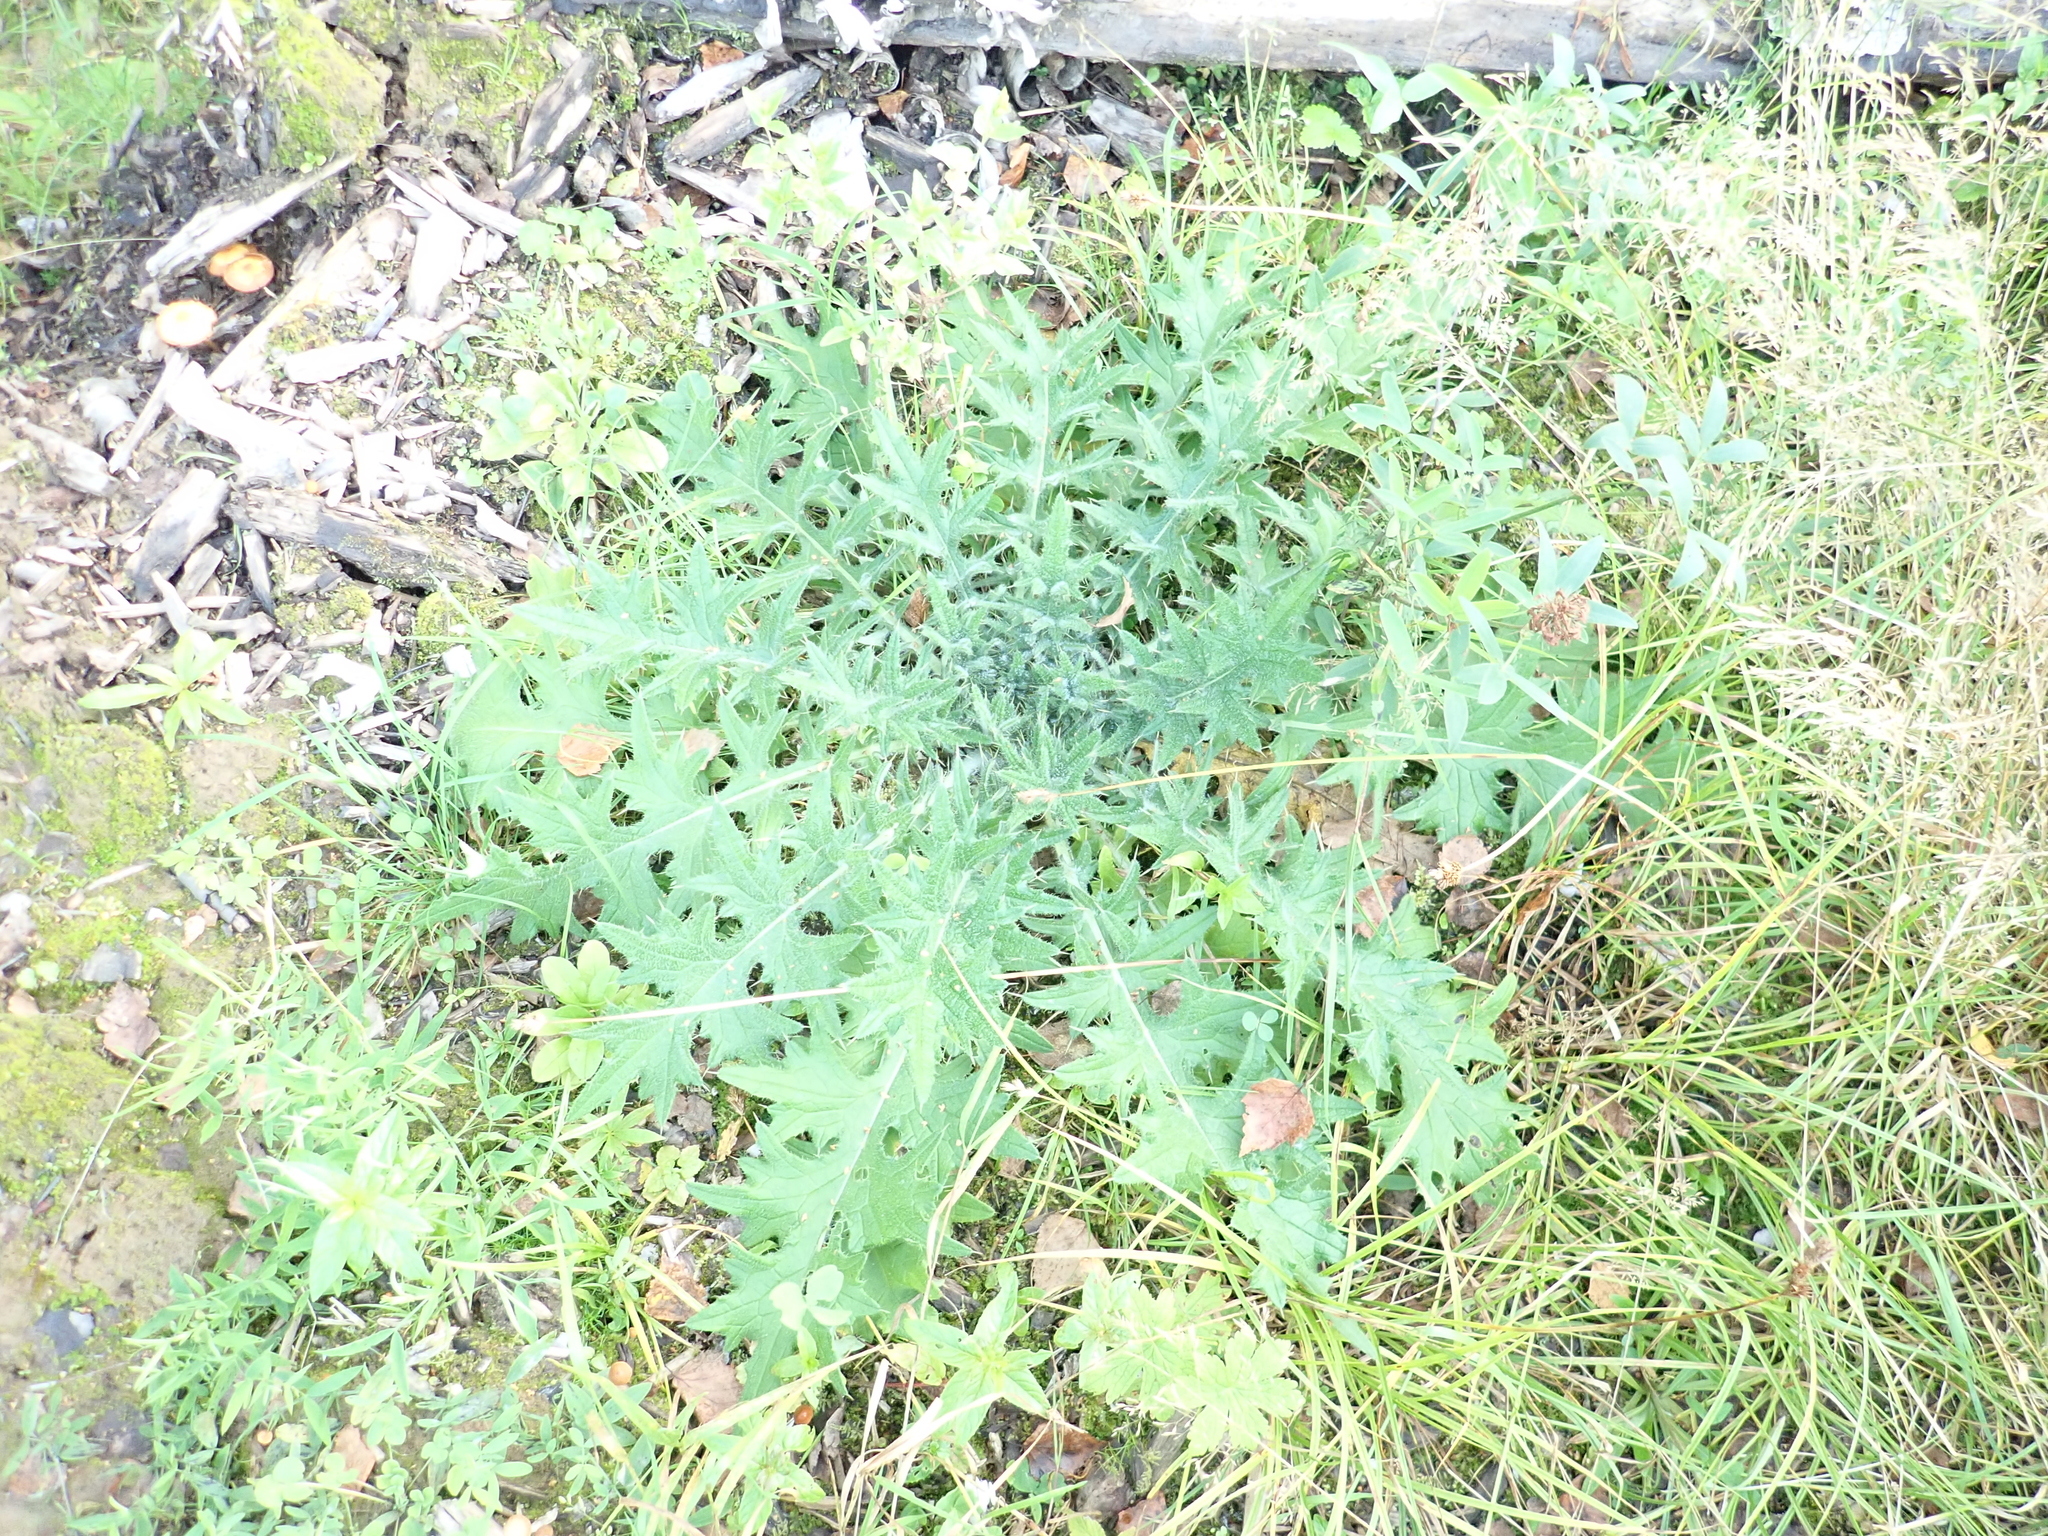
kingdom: Plantae
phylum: Tracheophyta
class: Magnoliopsida
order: Asterales
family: Asteraceae
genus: Cirsium
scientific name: Cirsium vulgare
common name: Bull thistle
